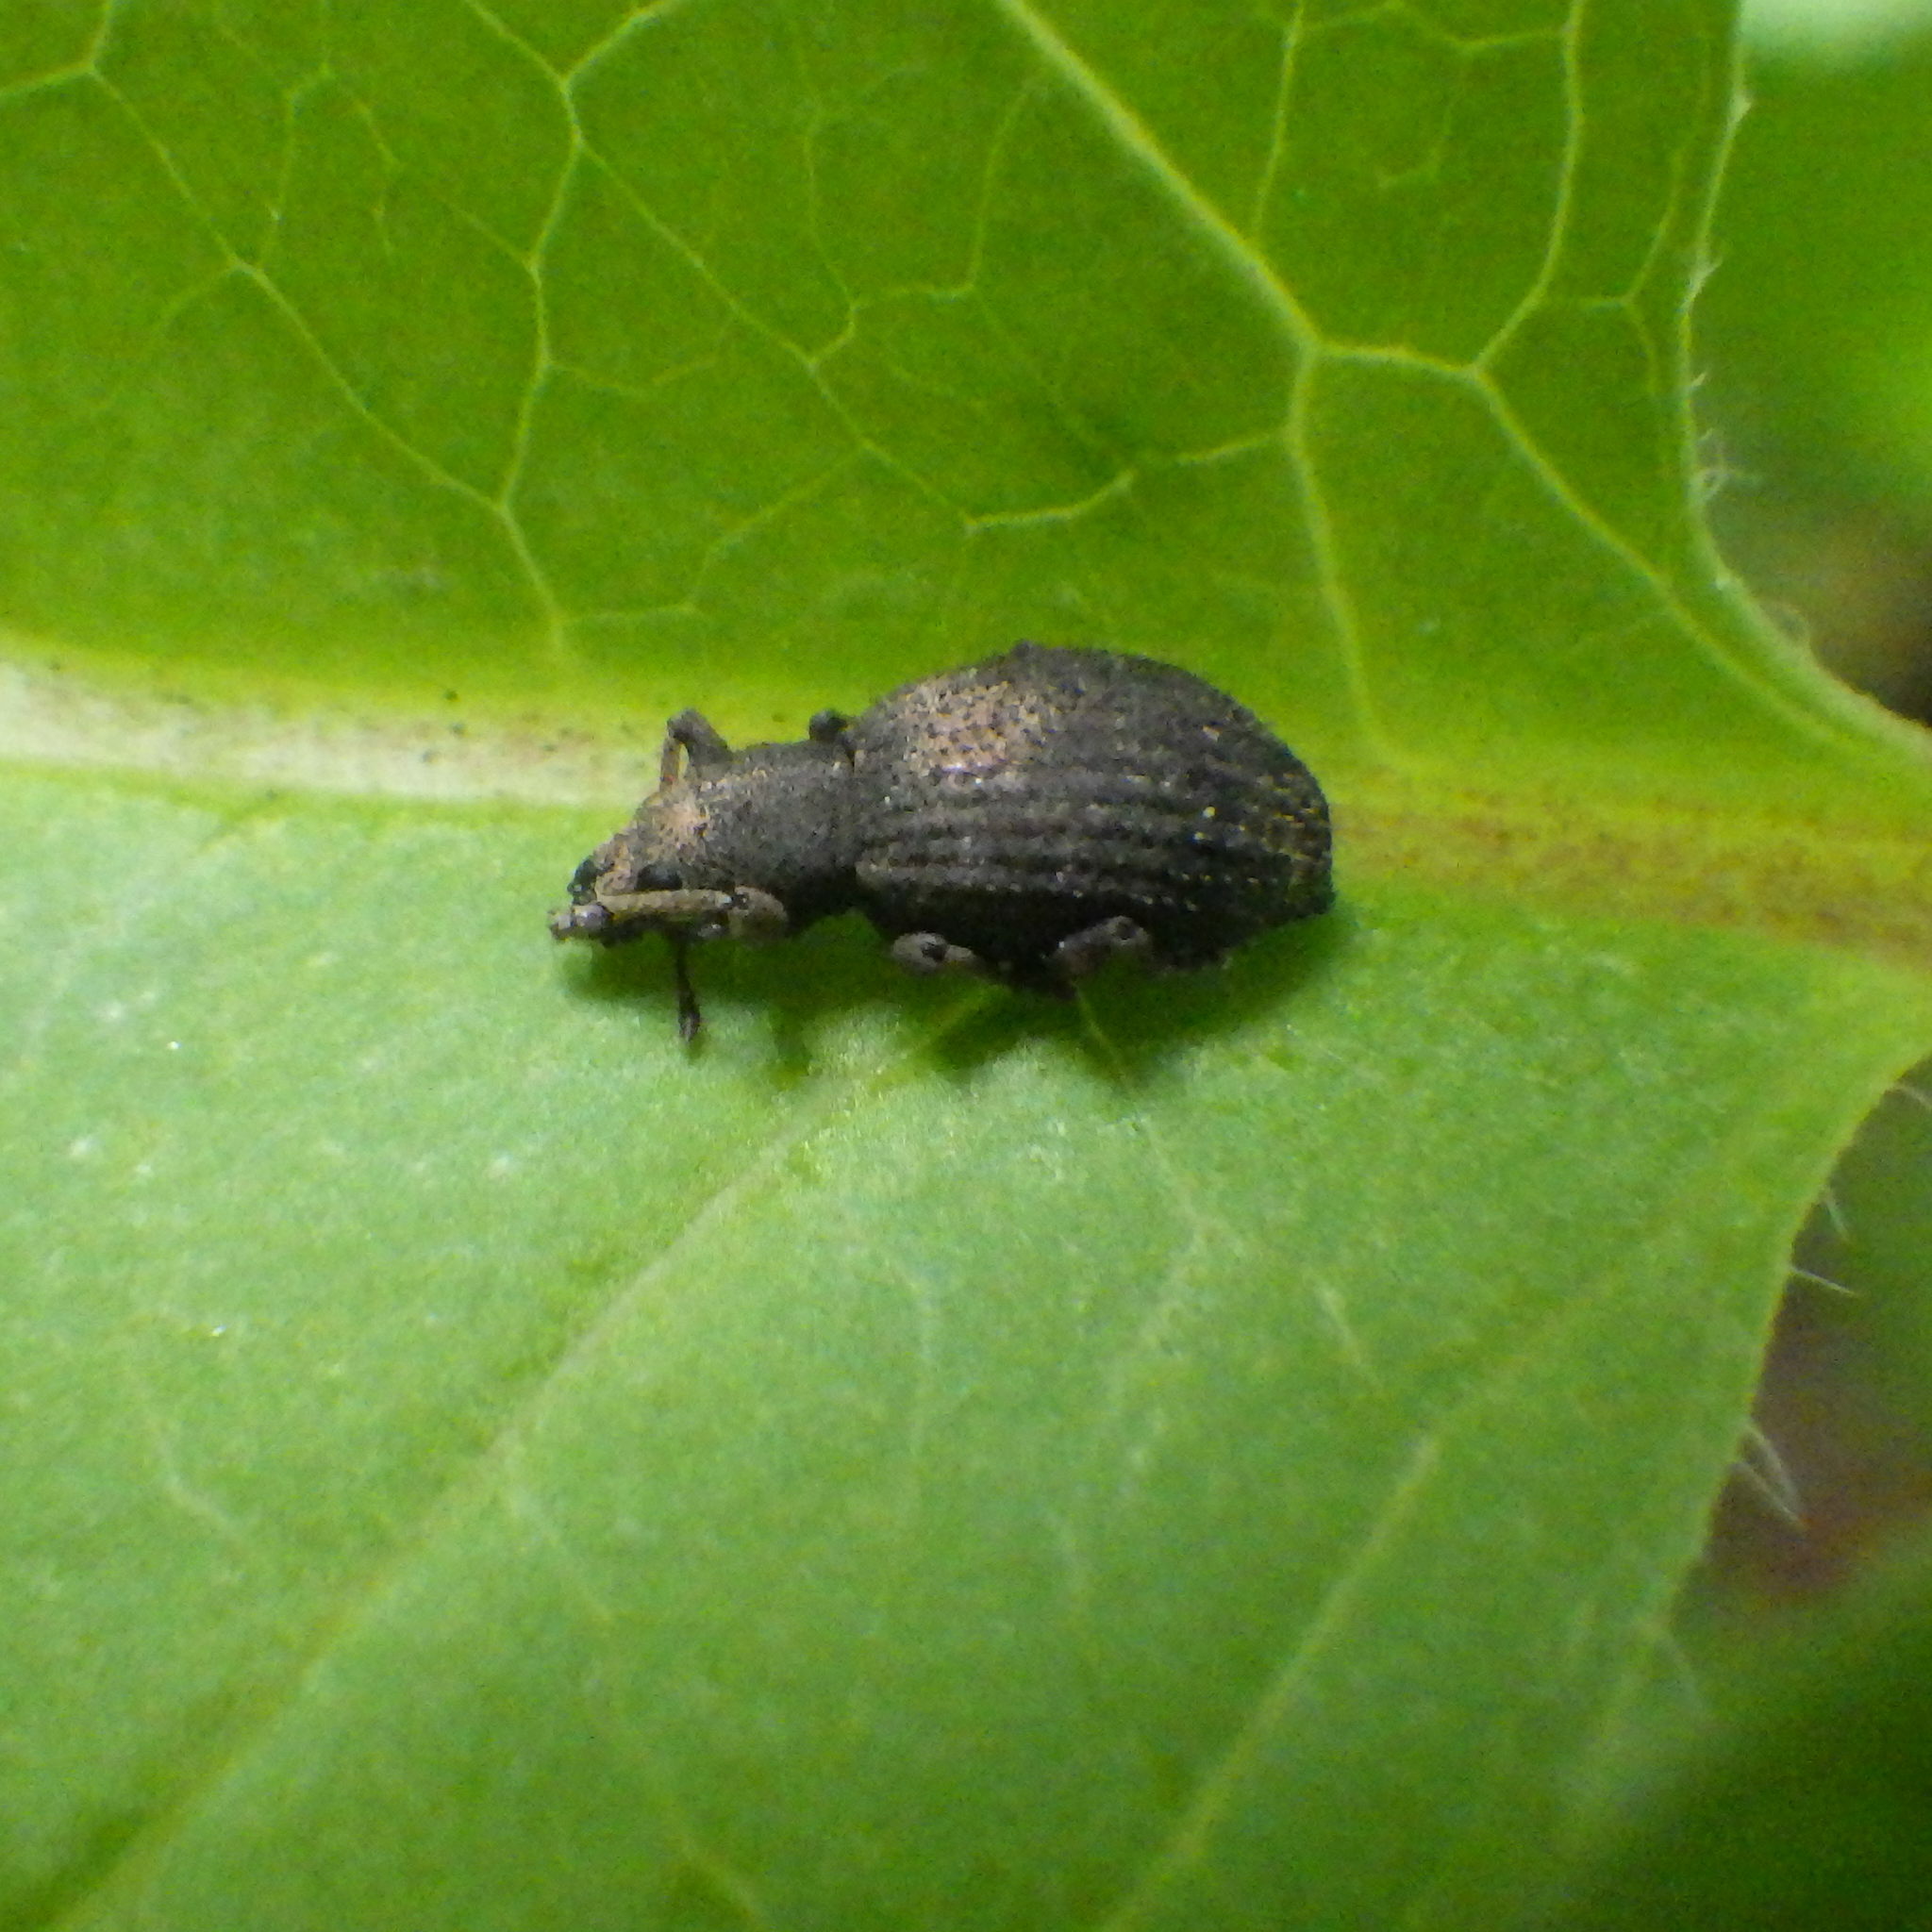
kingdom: Animalia
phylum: Arthropoda
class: Insecta
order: Coleoptera
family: Curculionidae
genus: Sciaphilus
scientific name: Sciaphilus asperatus
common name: Weevil
